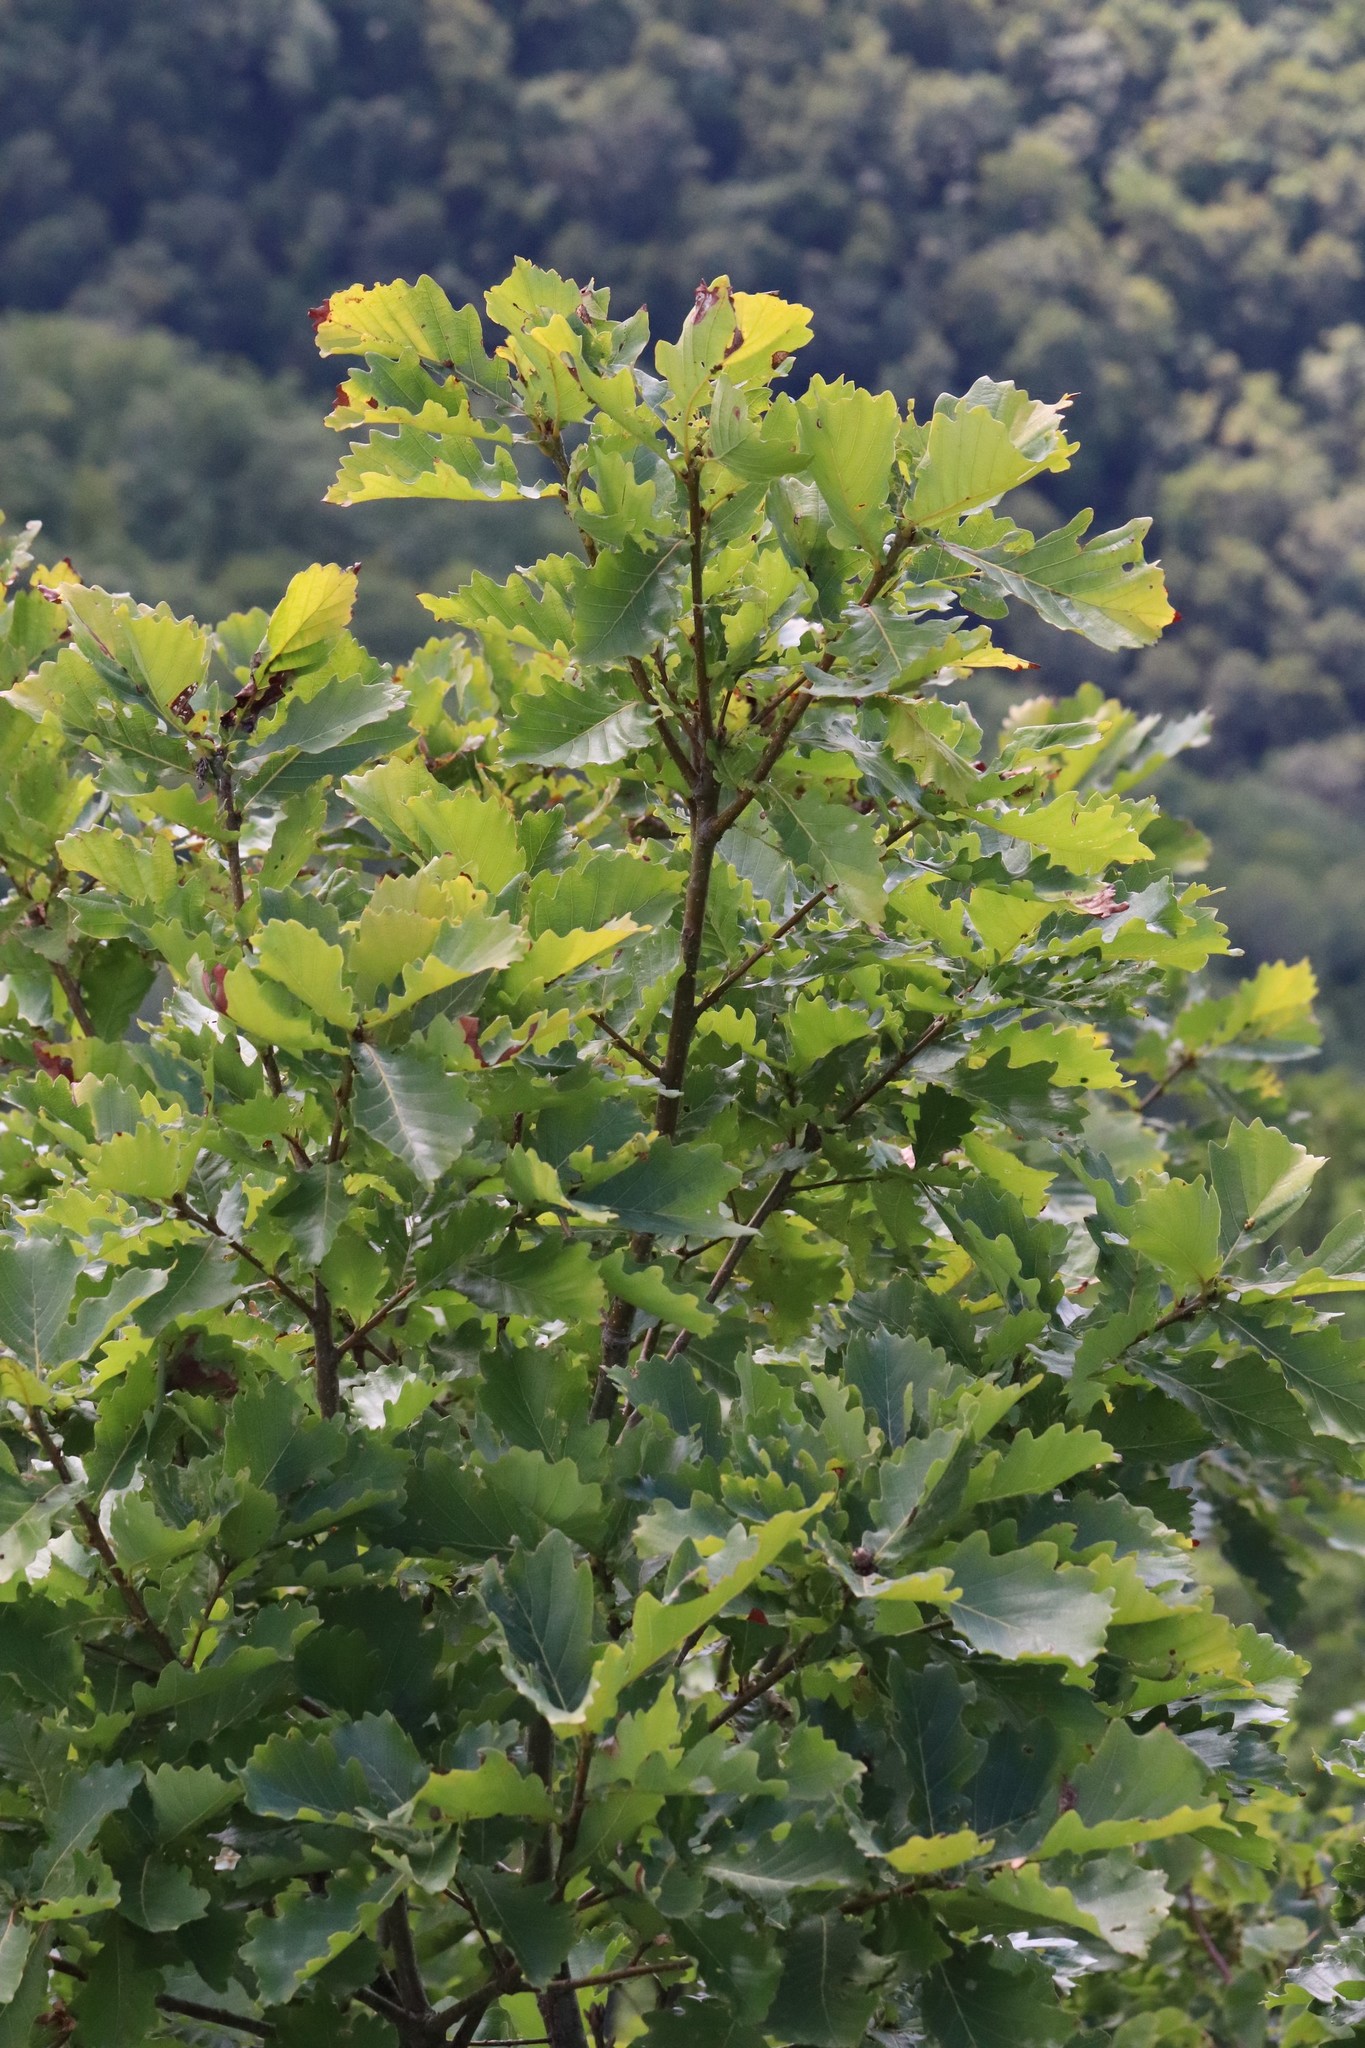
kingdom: Plantae
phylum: Tracheophyta
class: Magnoliopsida
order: Fagales
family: Fagaceae
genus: Quercus
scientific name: Quercus mongolica
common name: Mongolian oak
